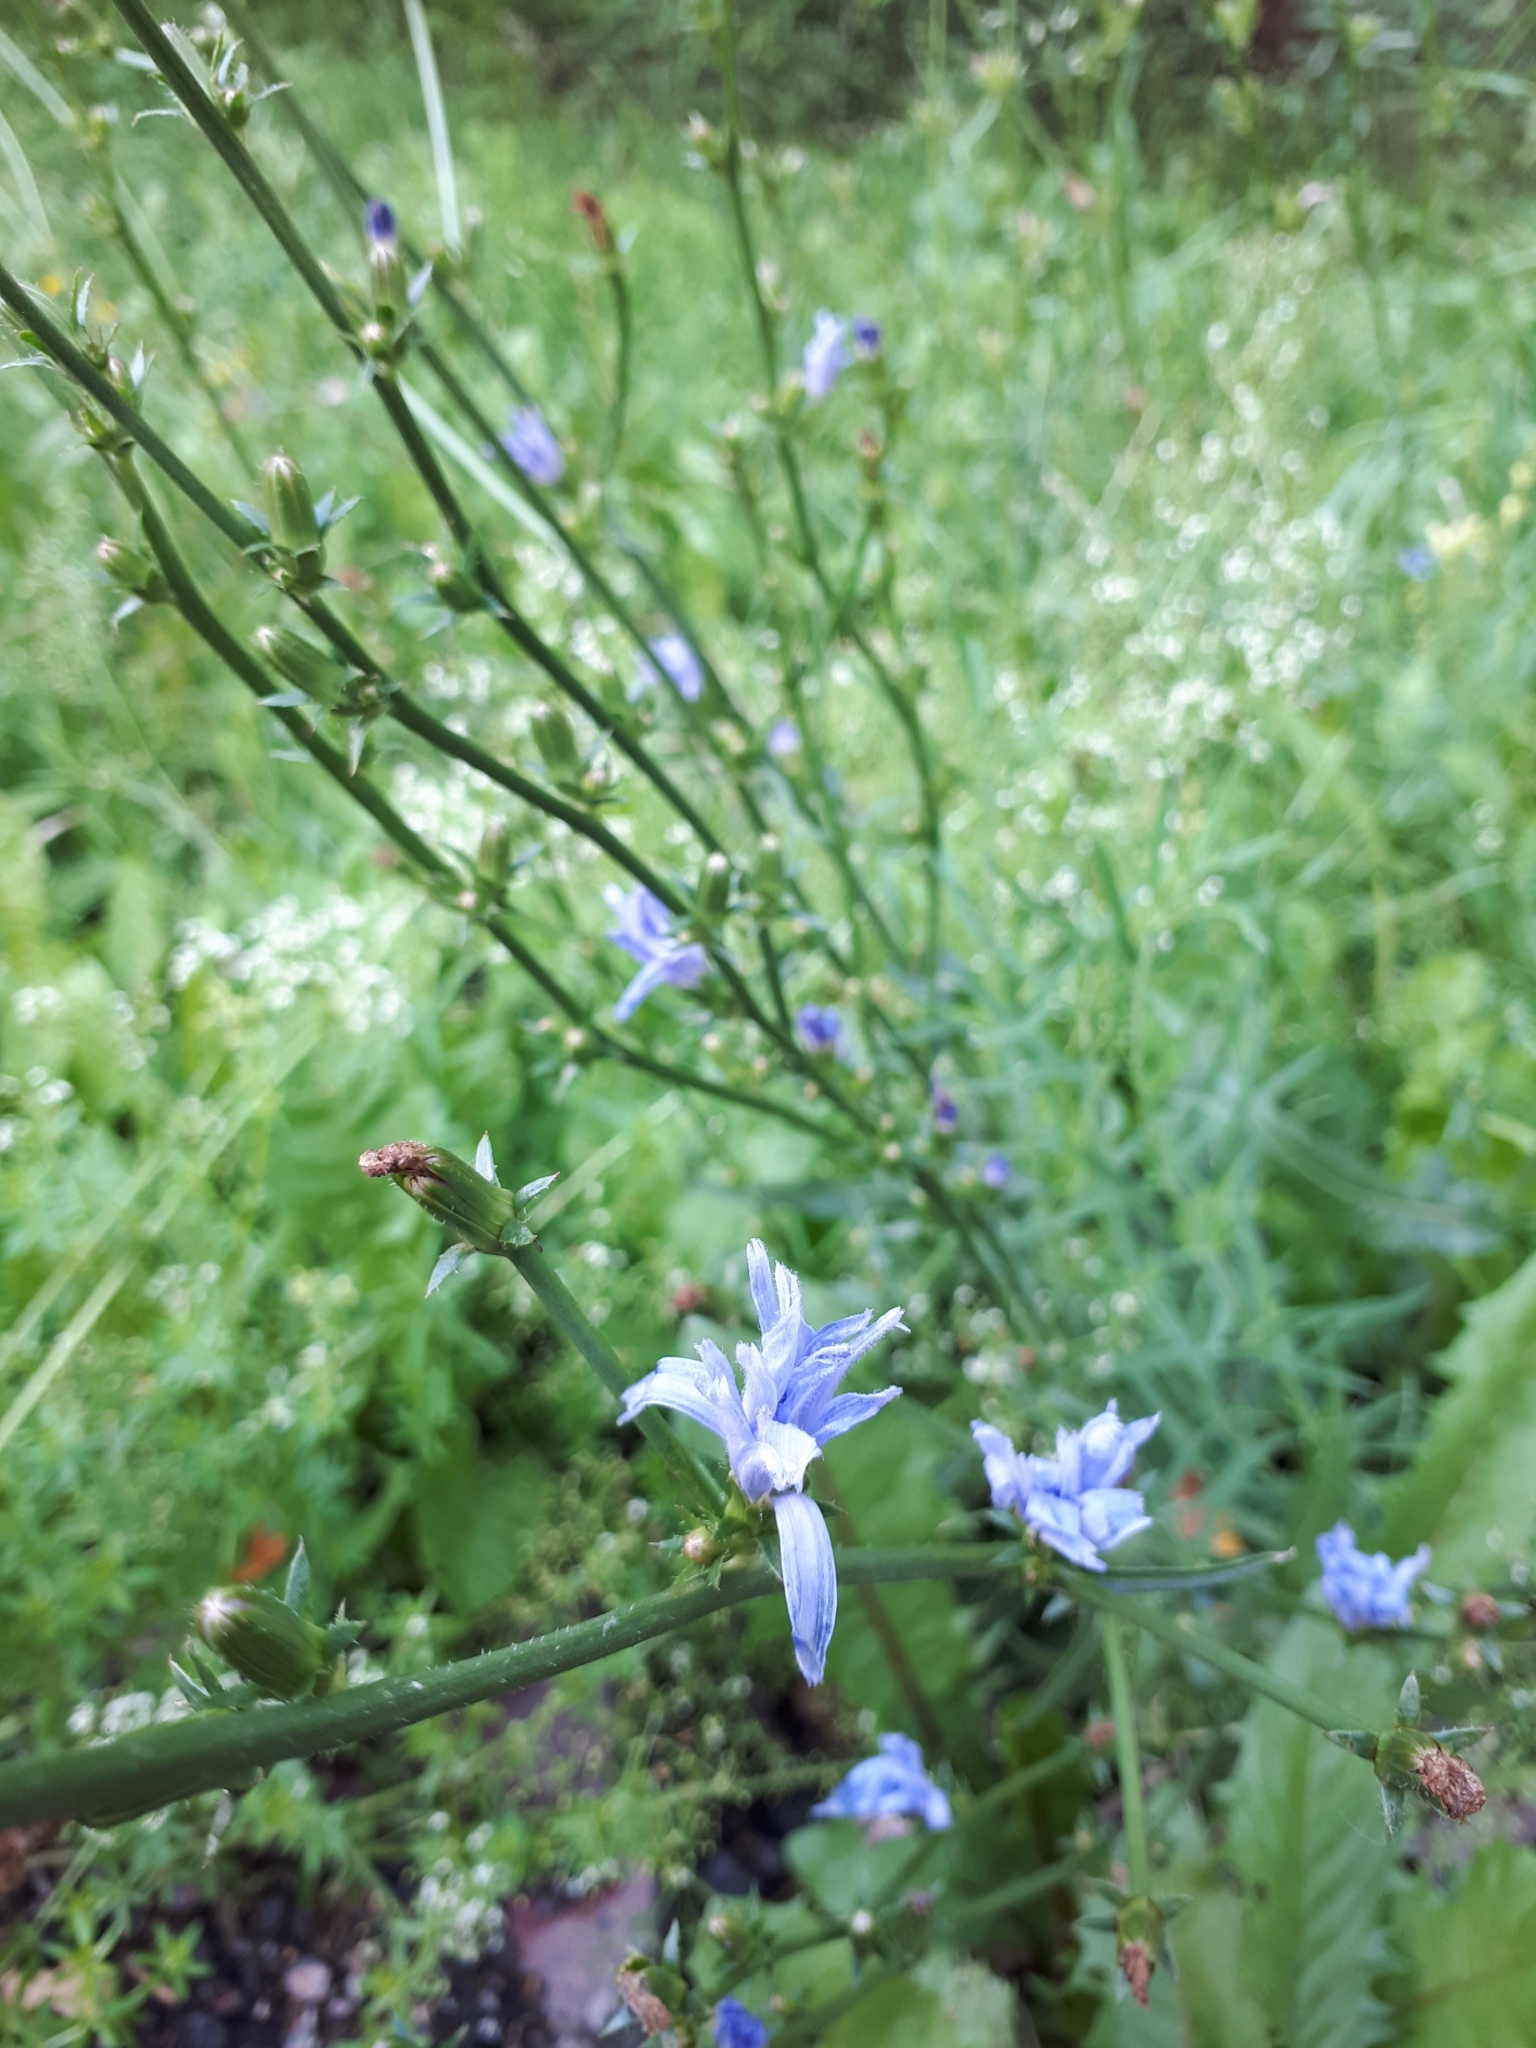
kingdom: Plantae
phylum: Tracheophyta
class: Magnoliopsida
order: Asterales
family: Asteraceae
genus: Cichorium
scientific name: Cichorium intybus
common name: Chicory
